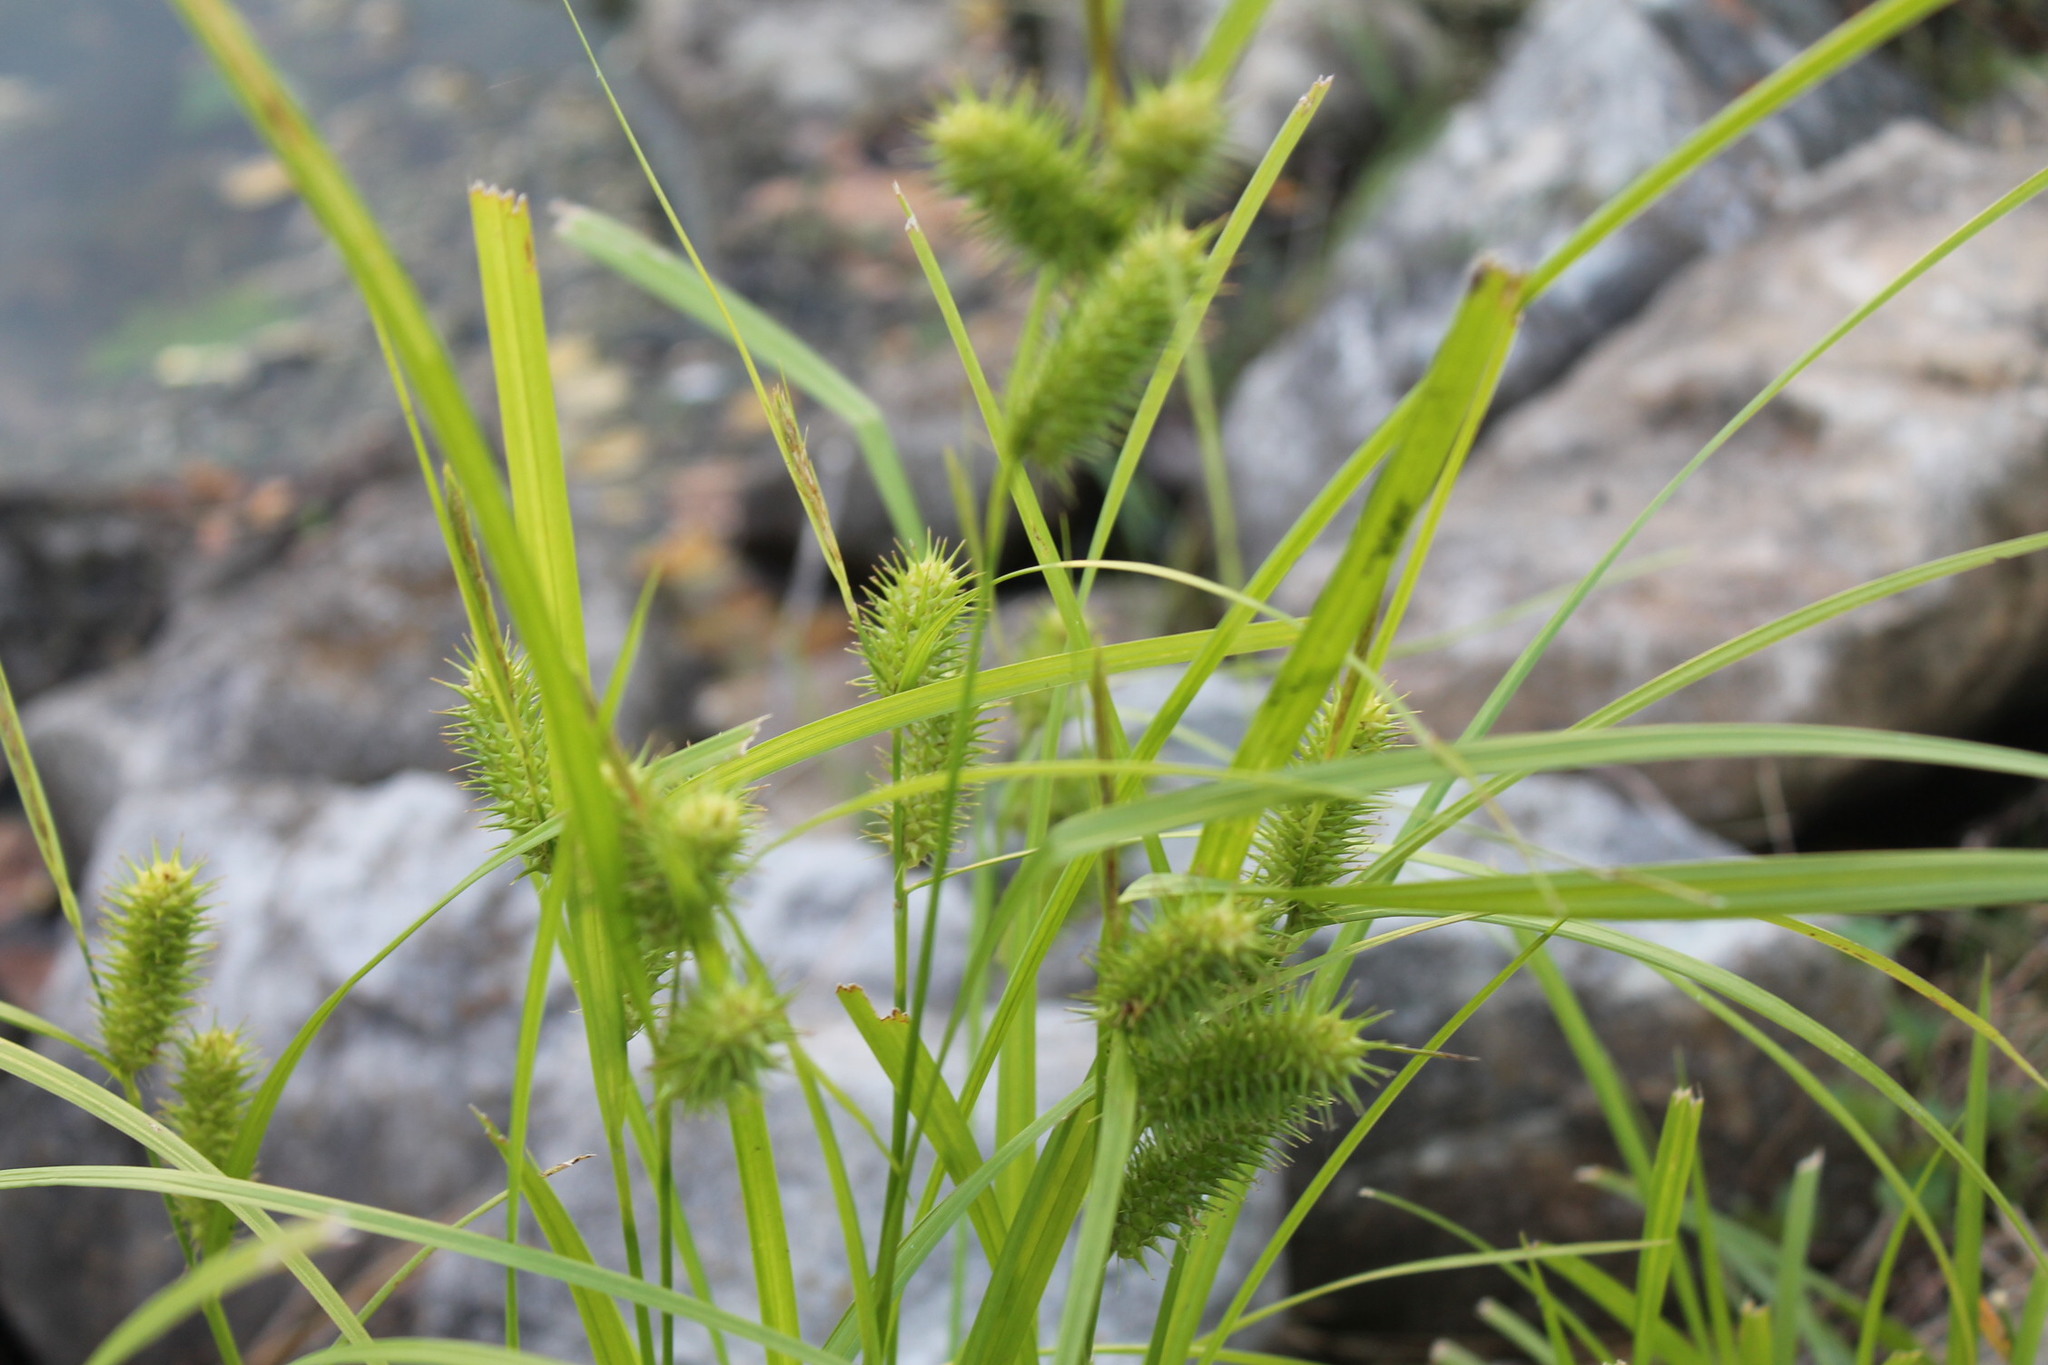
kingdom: Plantae
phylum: Tracheophyta
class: Liliopsida
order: Poales
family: Cyperaceae
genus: Carex
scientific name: Carex lurida
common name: Sallow sedge
